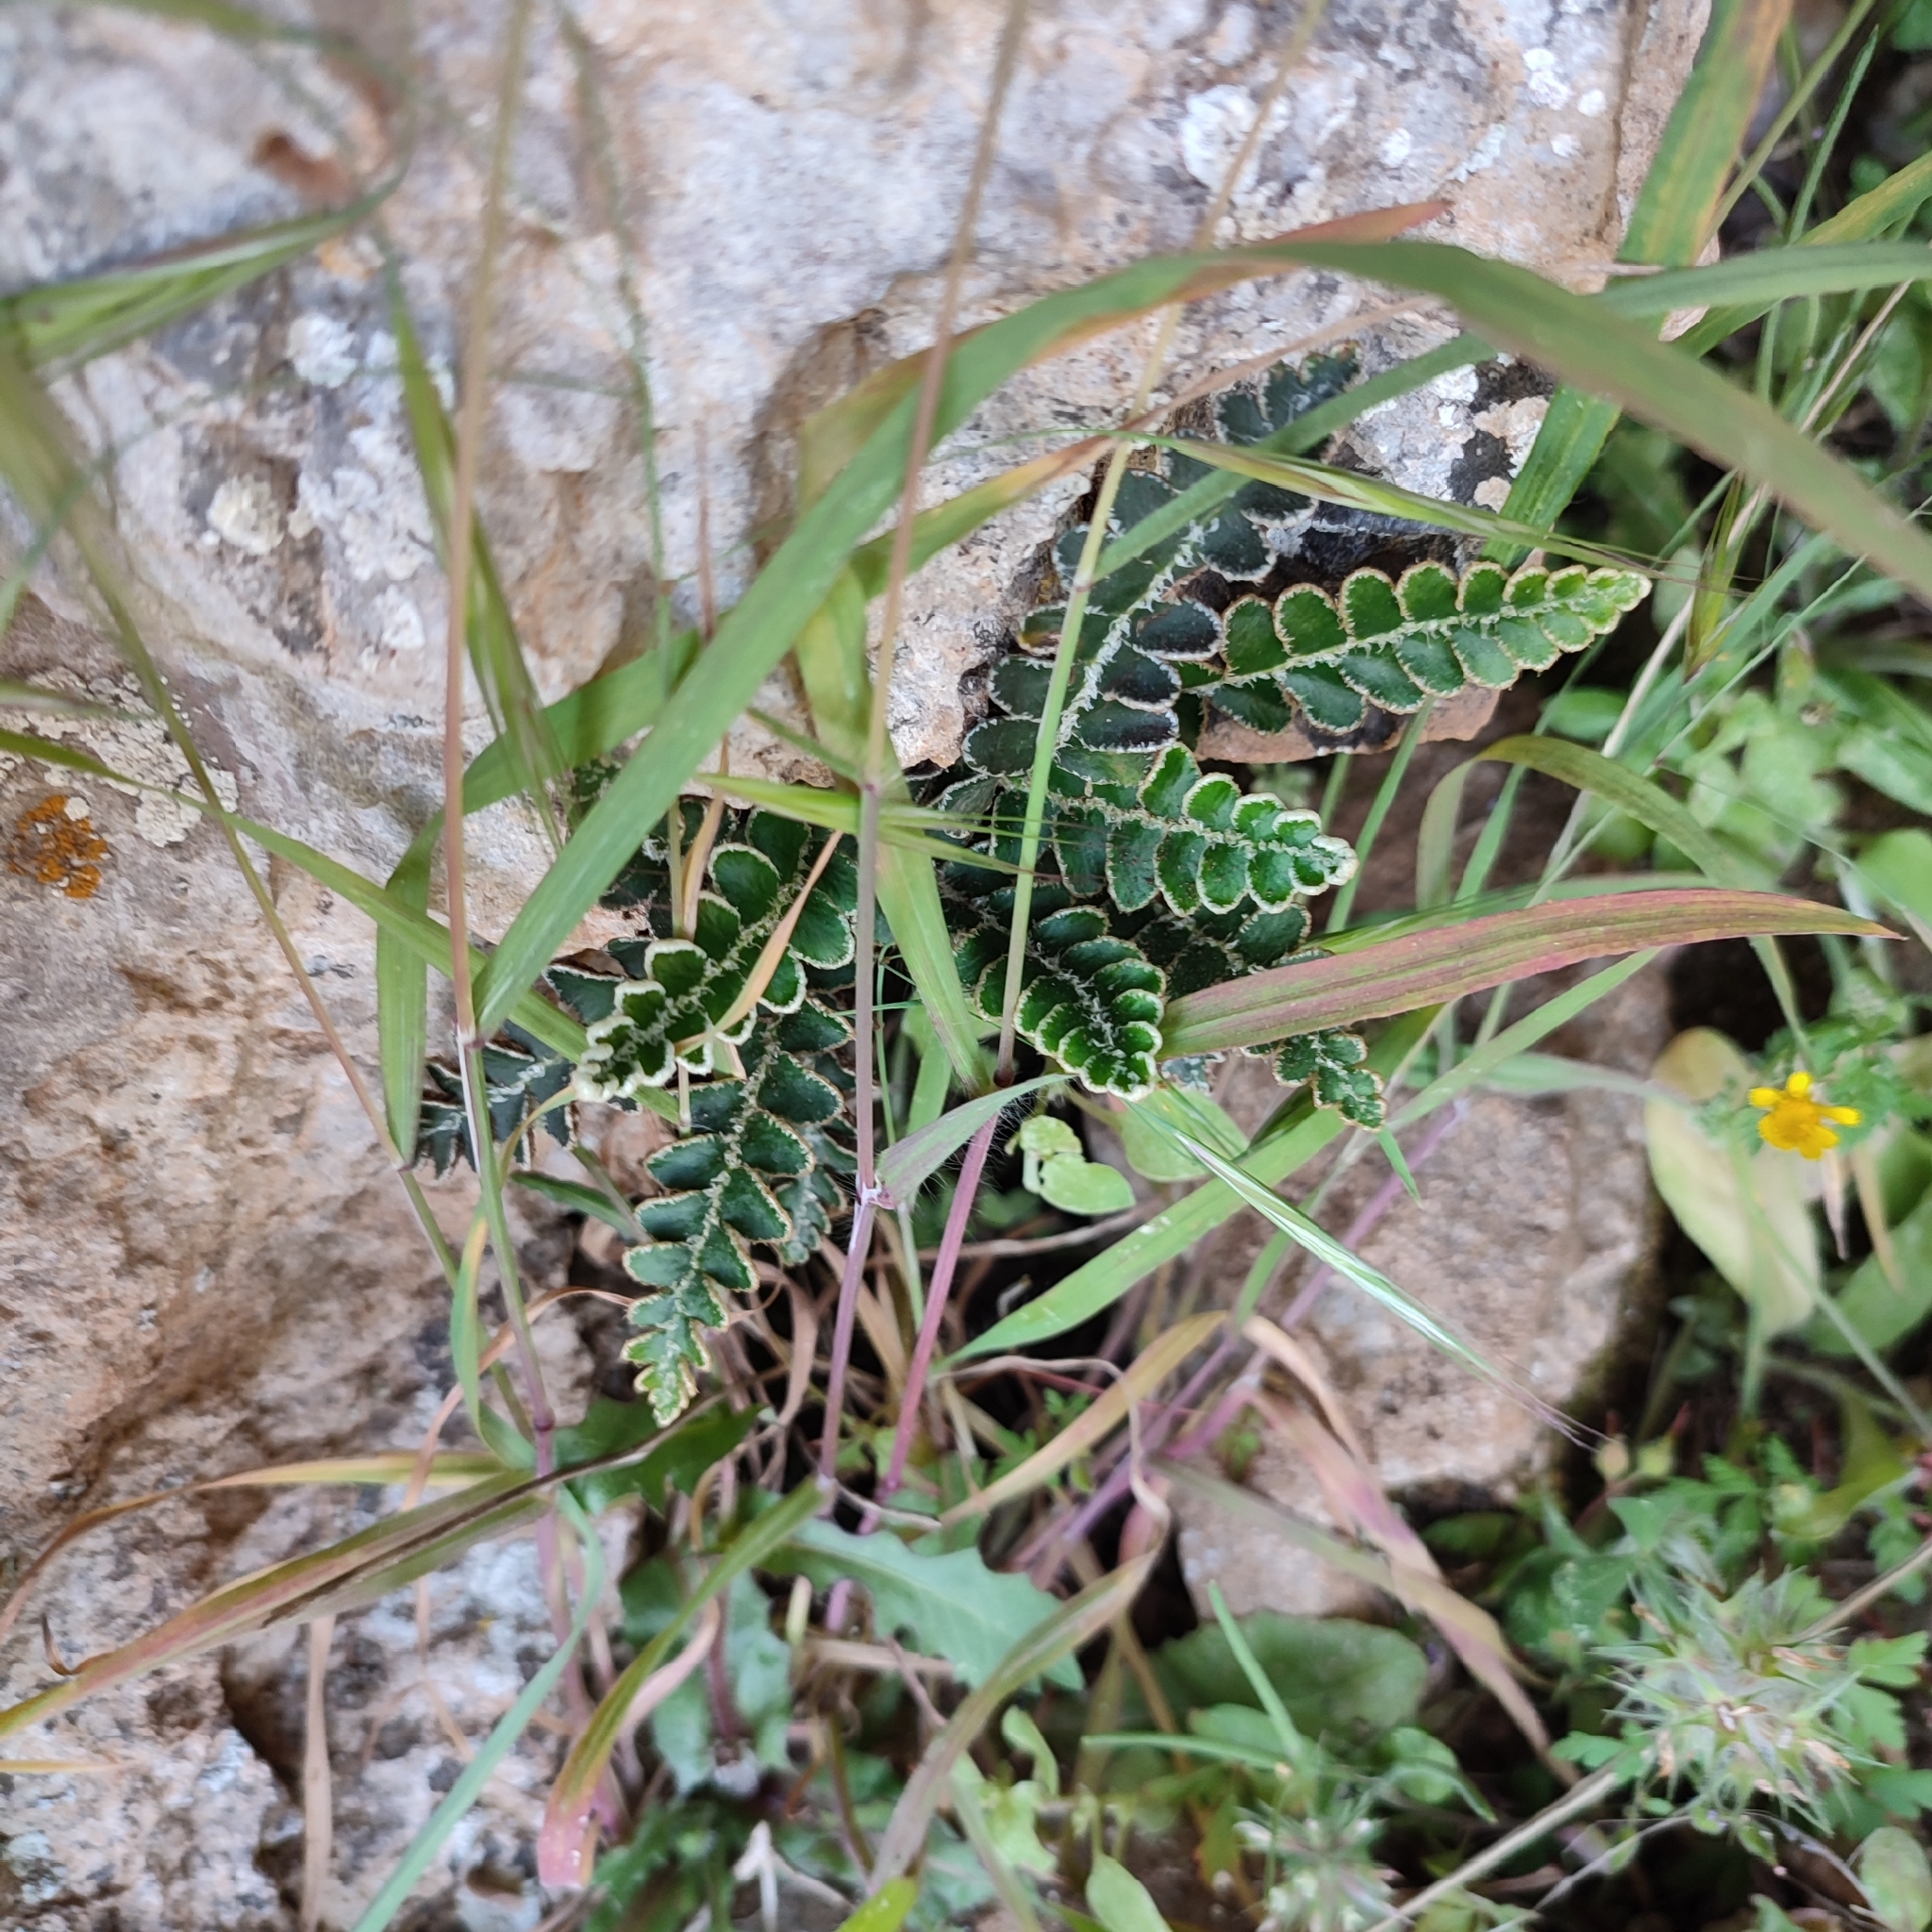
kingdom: Plantae
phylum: Tracheophyta
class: Polypodiopsida
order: Polypodiales
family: Aspleniaceae
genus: Asplenium
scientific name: Asplenium ceterach
